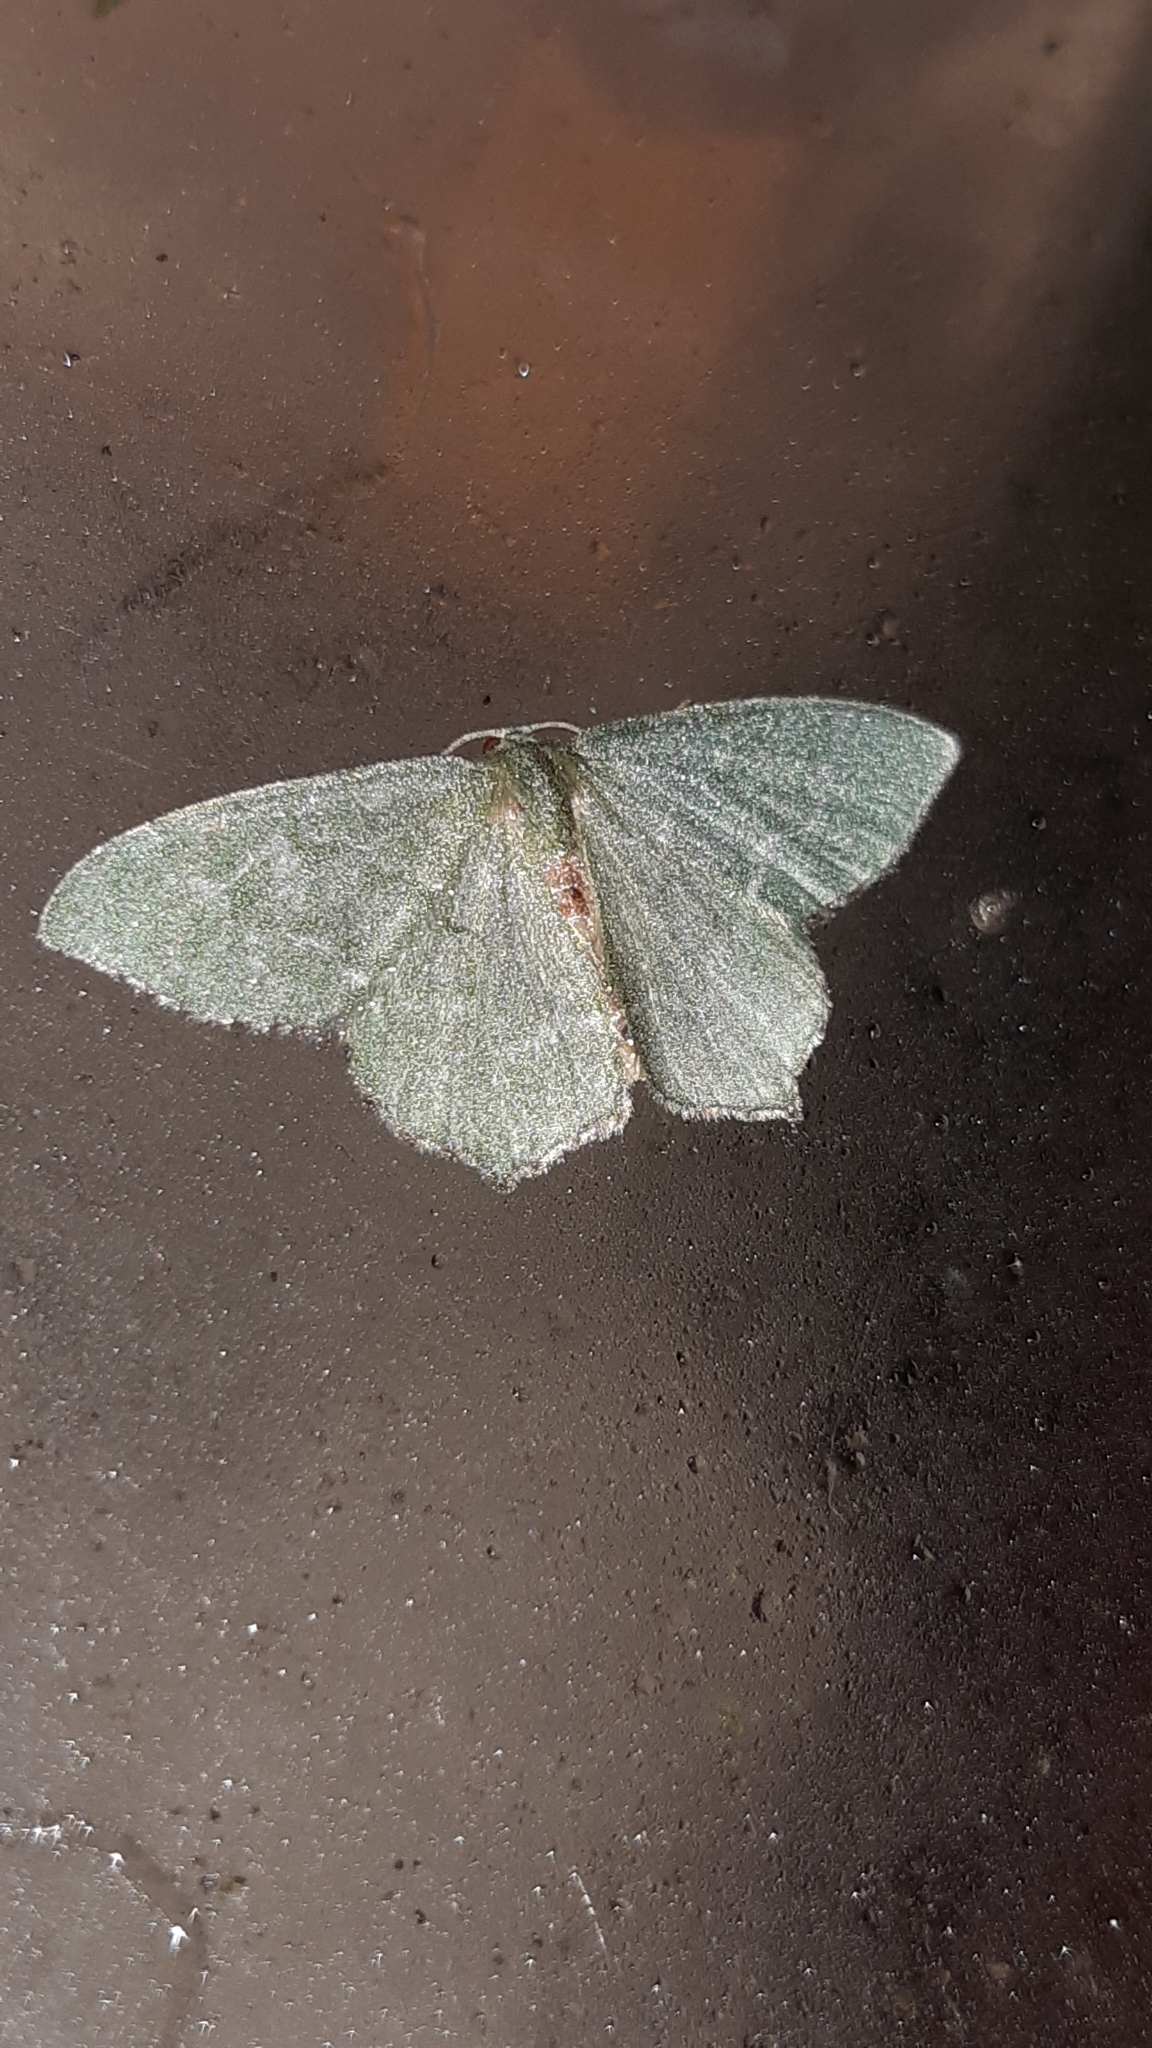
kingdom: Animalia
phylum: Arthropoda
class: Insecta
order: Lepidoptera
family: Geometridae
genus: Hemithea
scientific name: Hemithea aestivaria
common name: Common emerald
